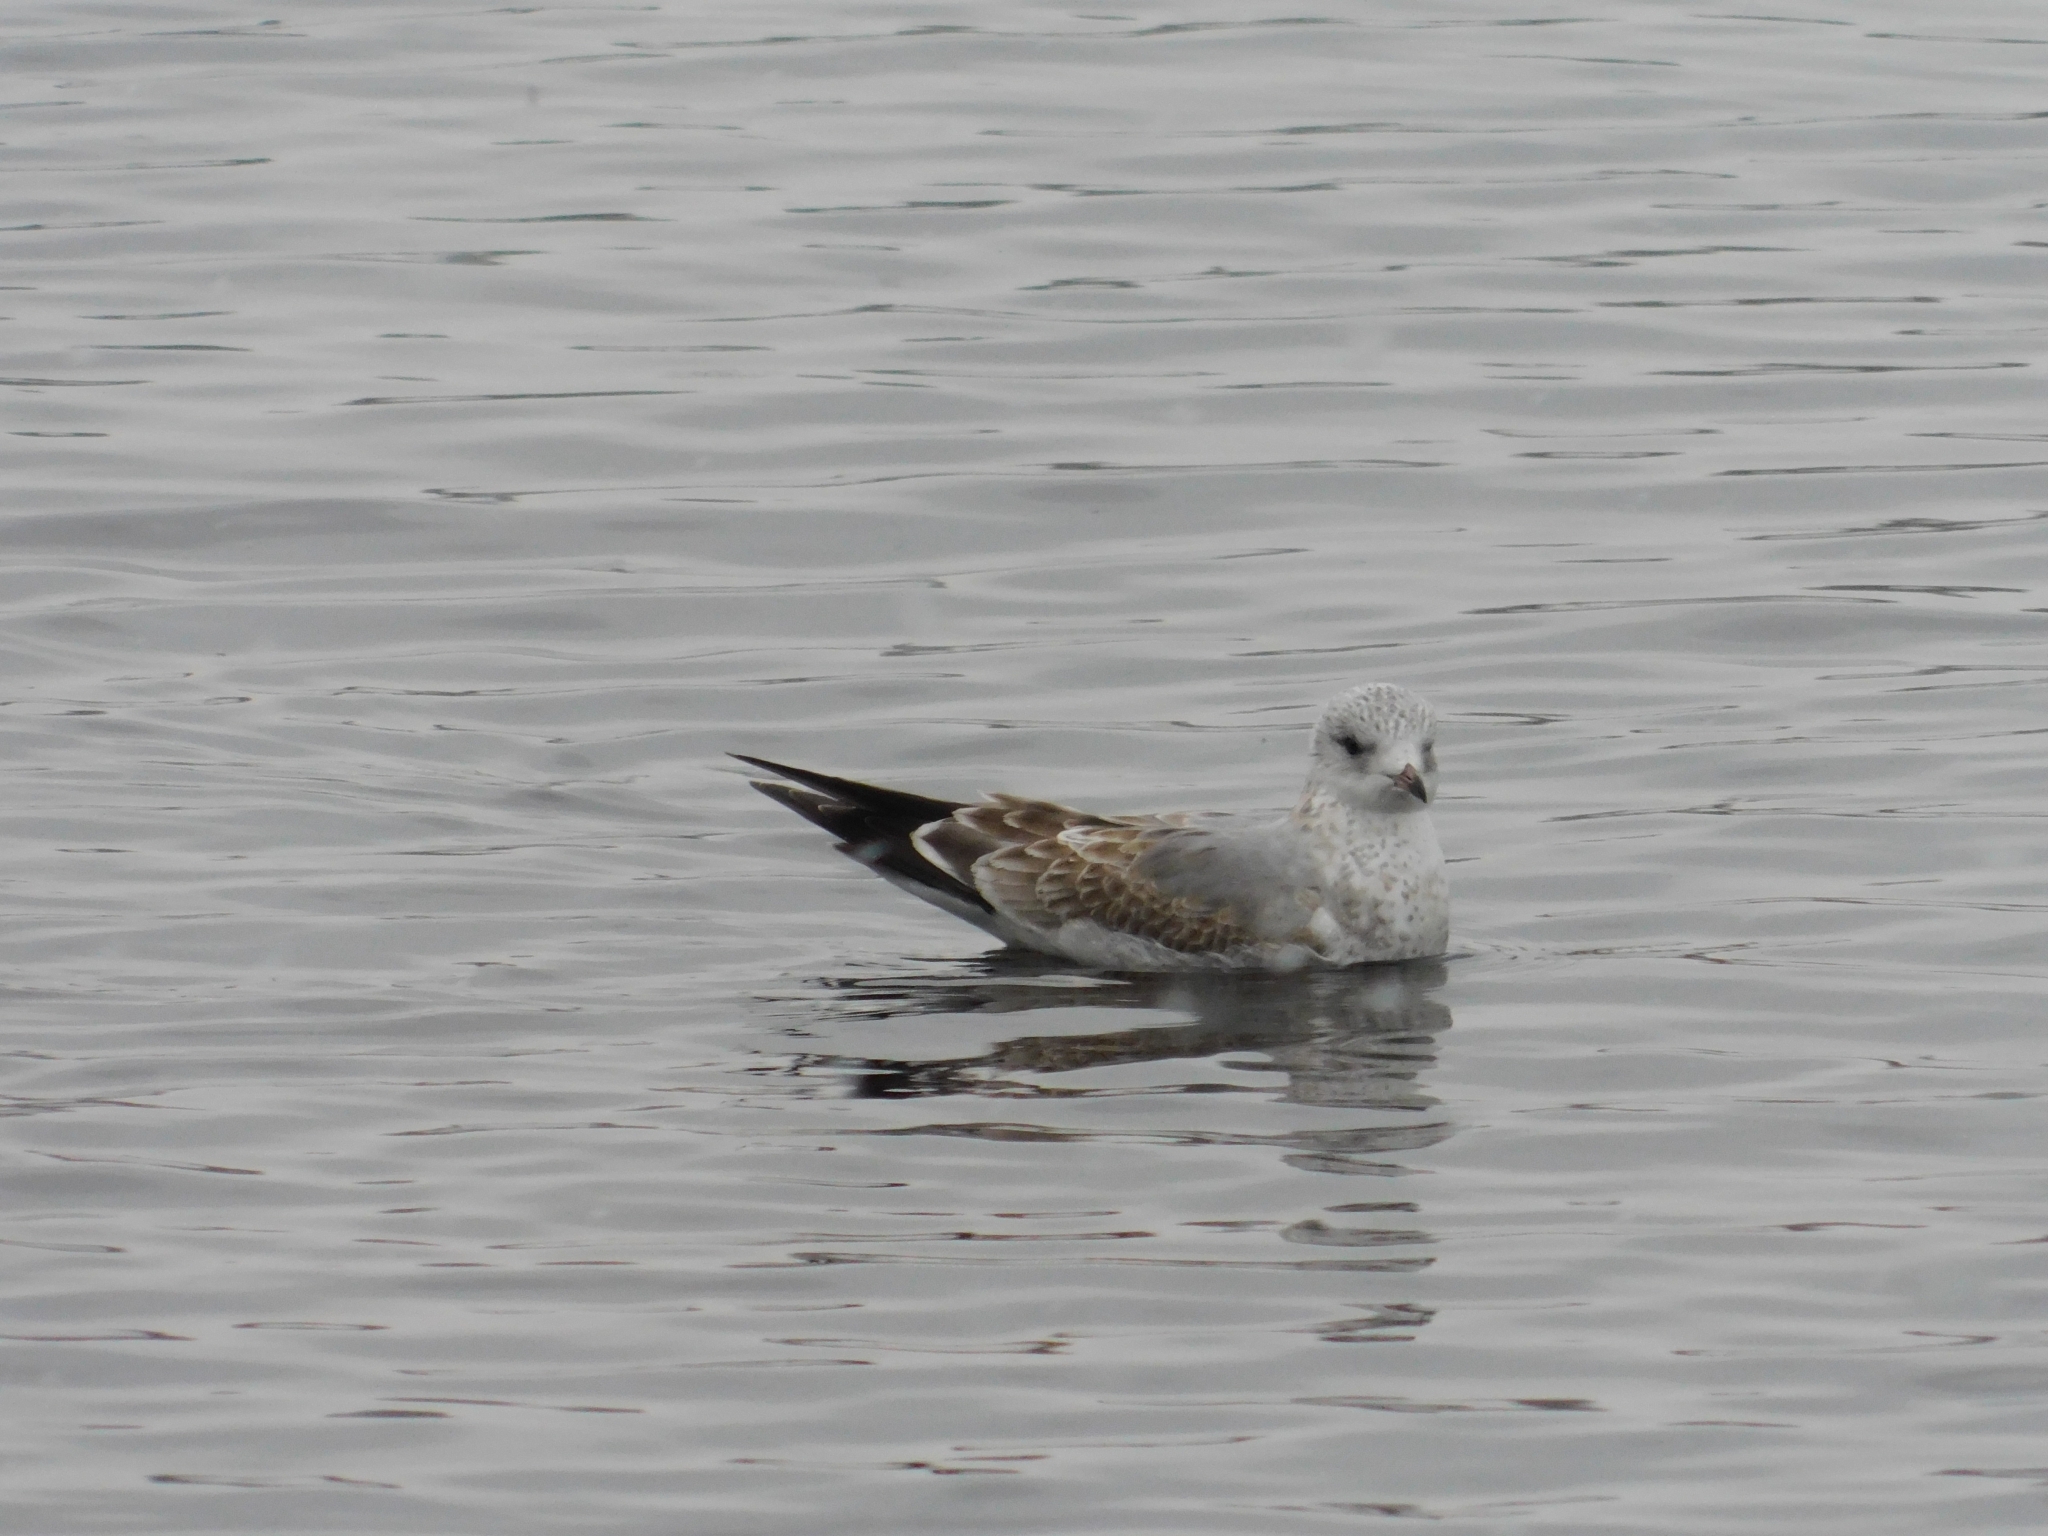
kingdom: Animalia
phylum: Chordata
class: Aves
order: Charadriiformes
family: Laridae
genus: Larus
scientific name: Larus canus
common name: Mew gull
